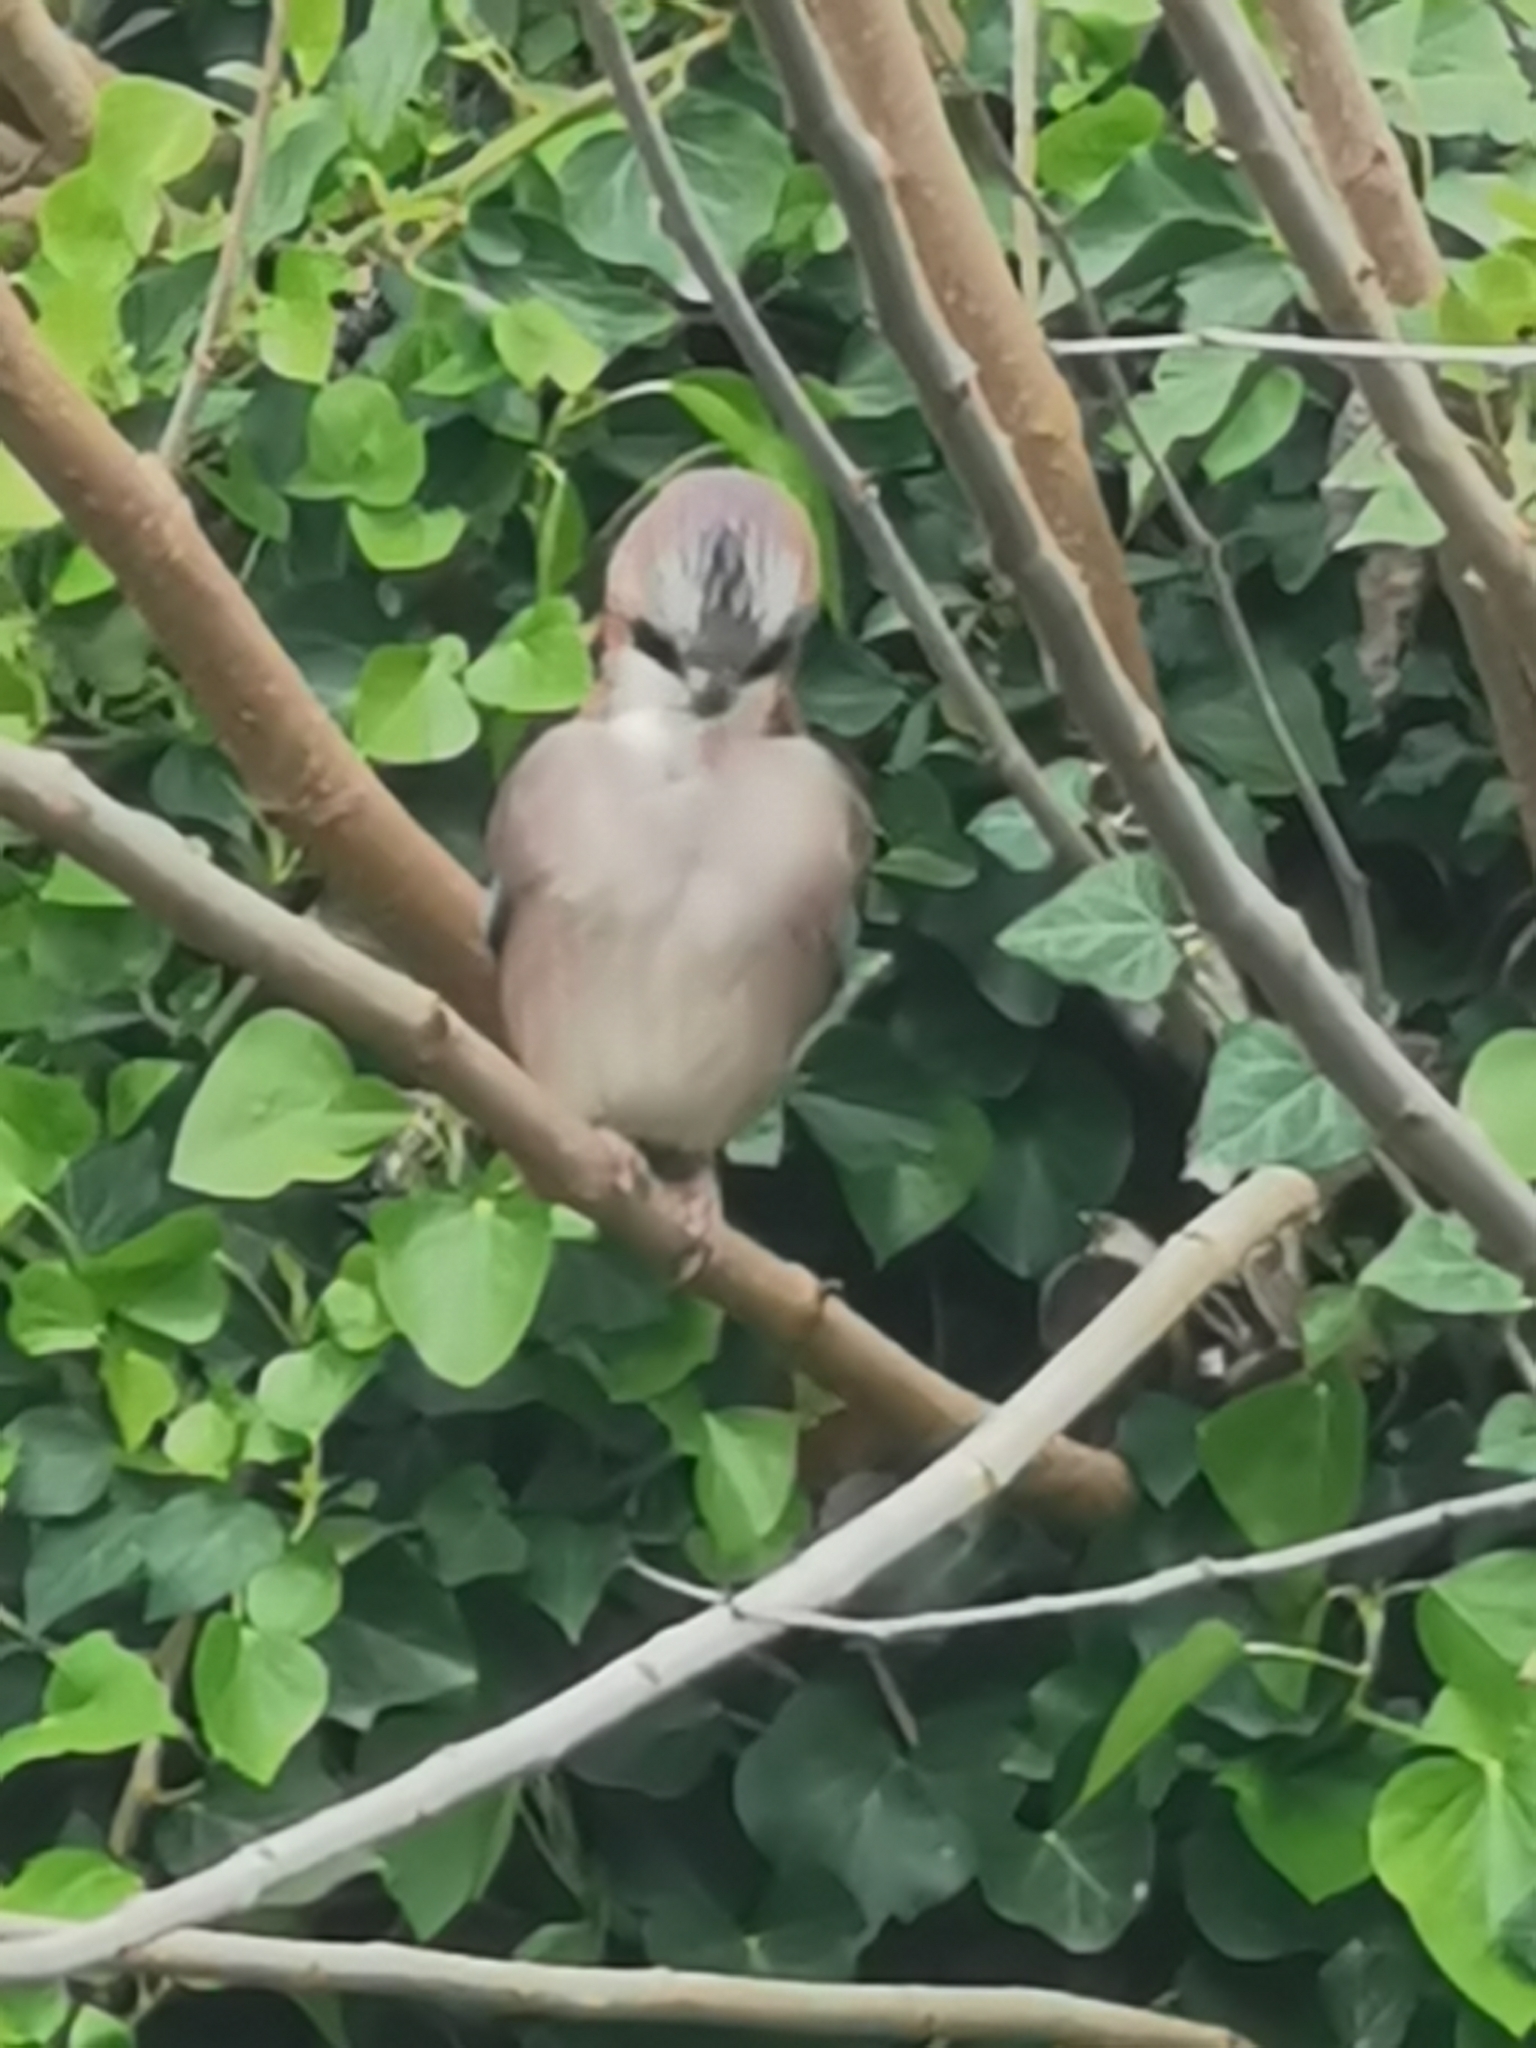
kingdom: Animalia
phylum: Chordata
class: Aves
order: Passeriformes
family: Corvidae
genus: Garrulus
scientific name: Garrulus glandarius
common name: Eurasian jay
